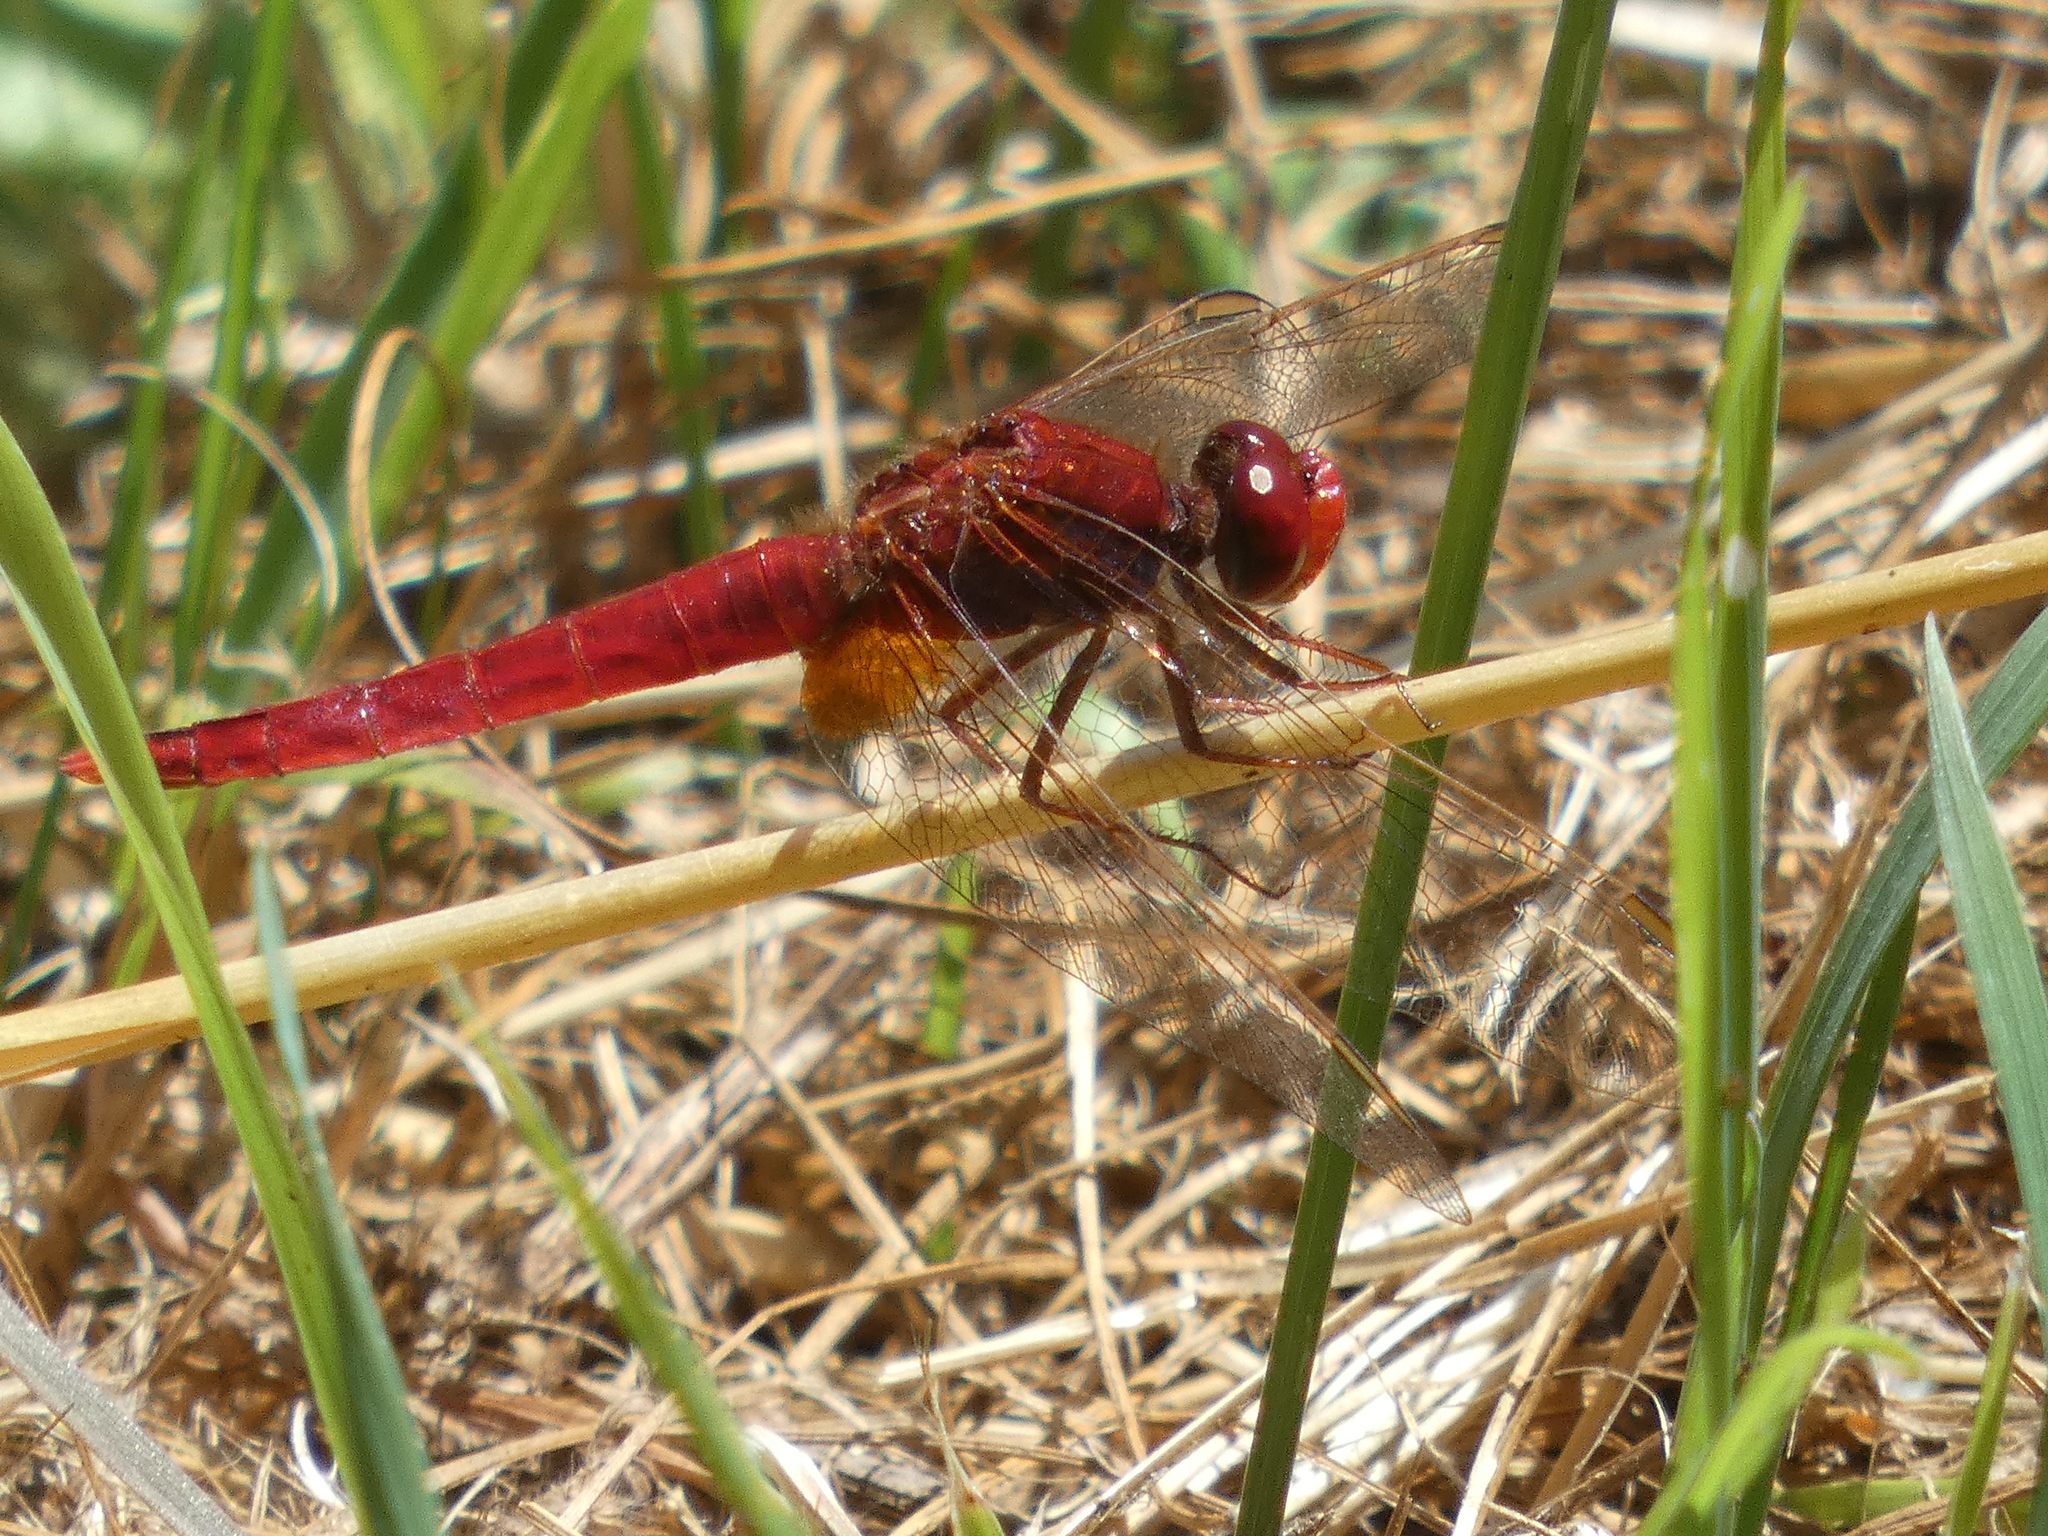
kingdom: Animalia
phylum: Arthropoda
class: Insecta
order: Odonata
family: Libellulidae
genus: Crocothemis
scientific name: Crocothemis erythraea
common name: Scarlet dragonfly
